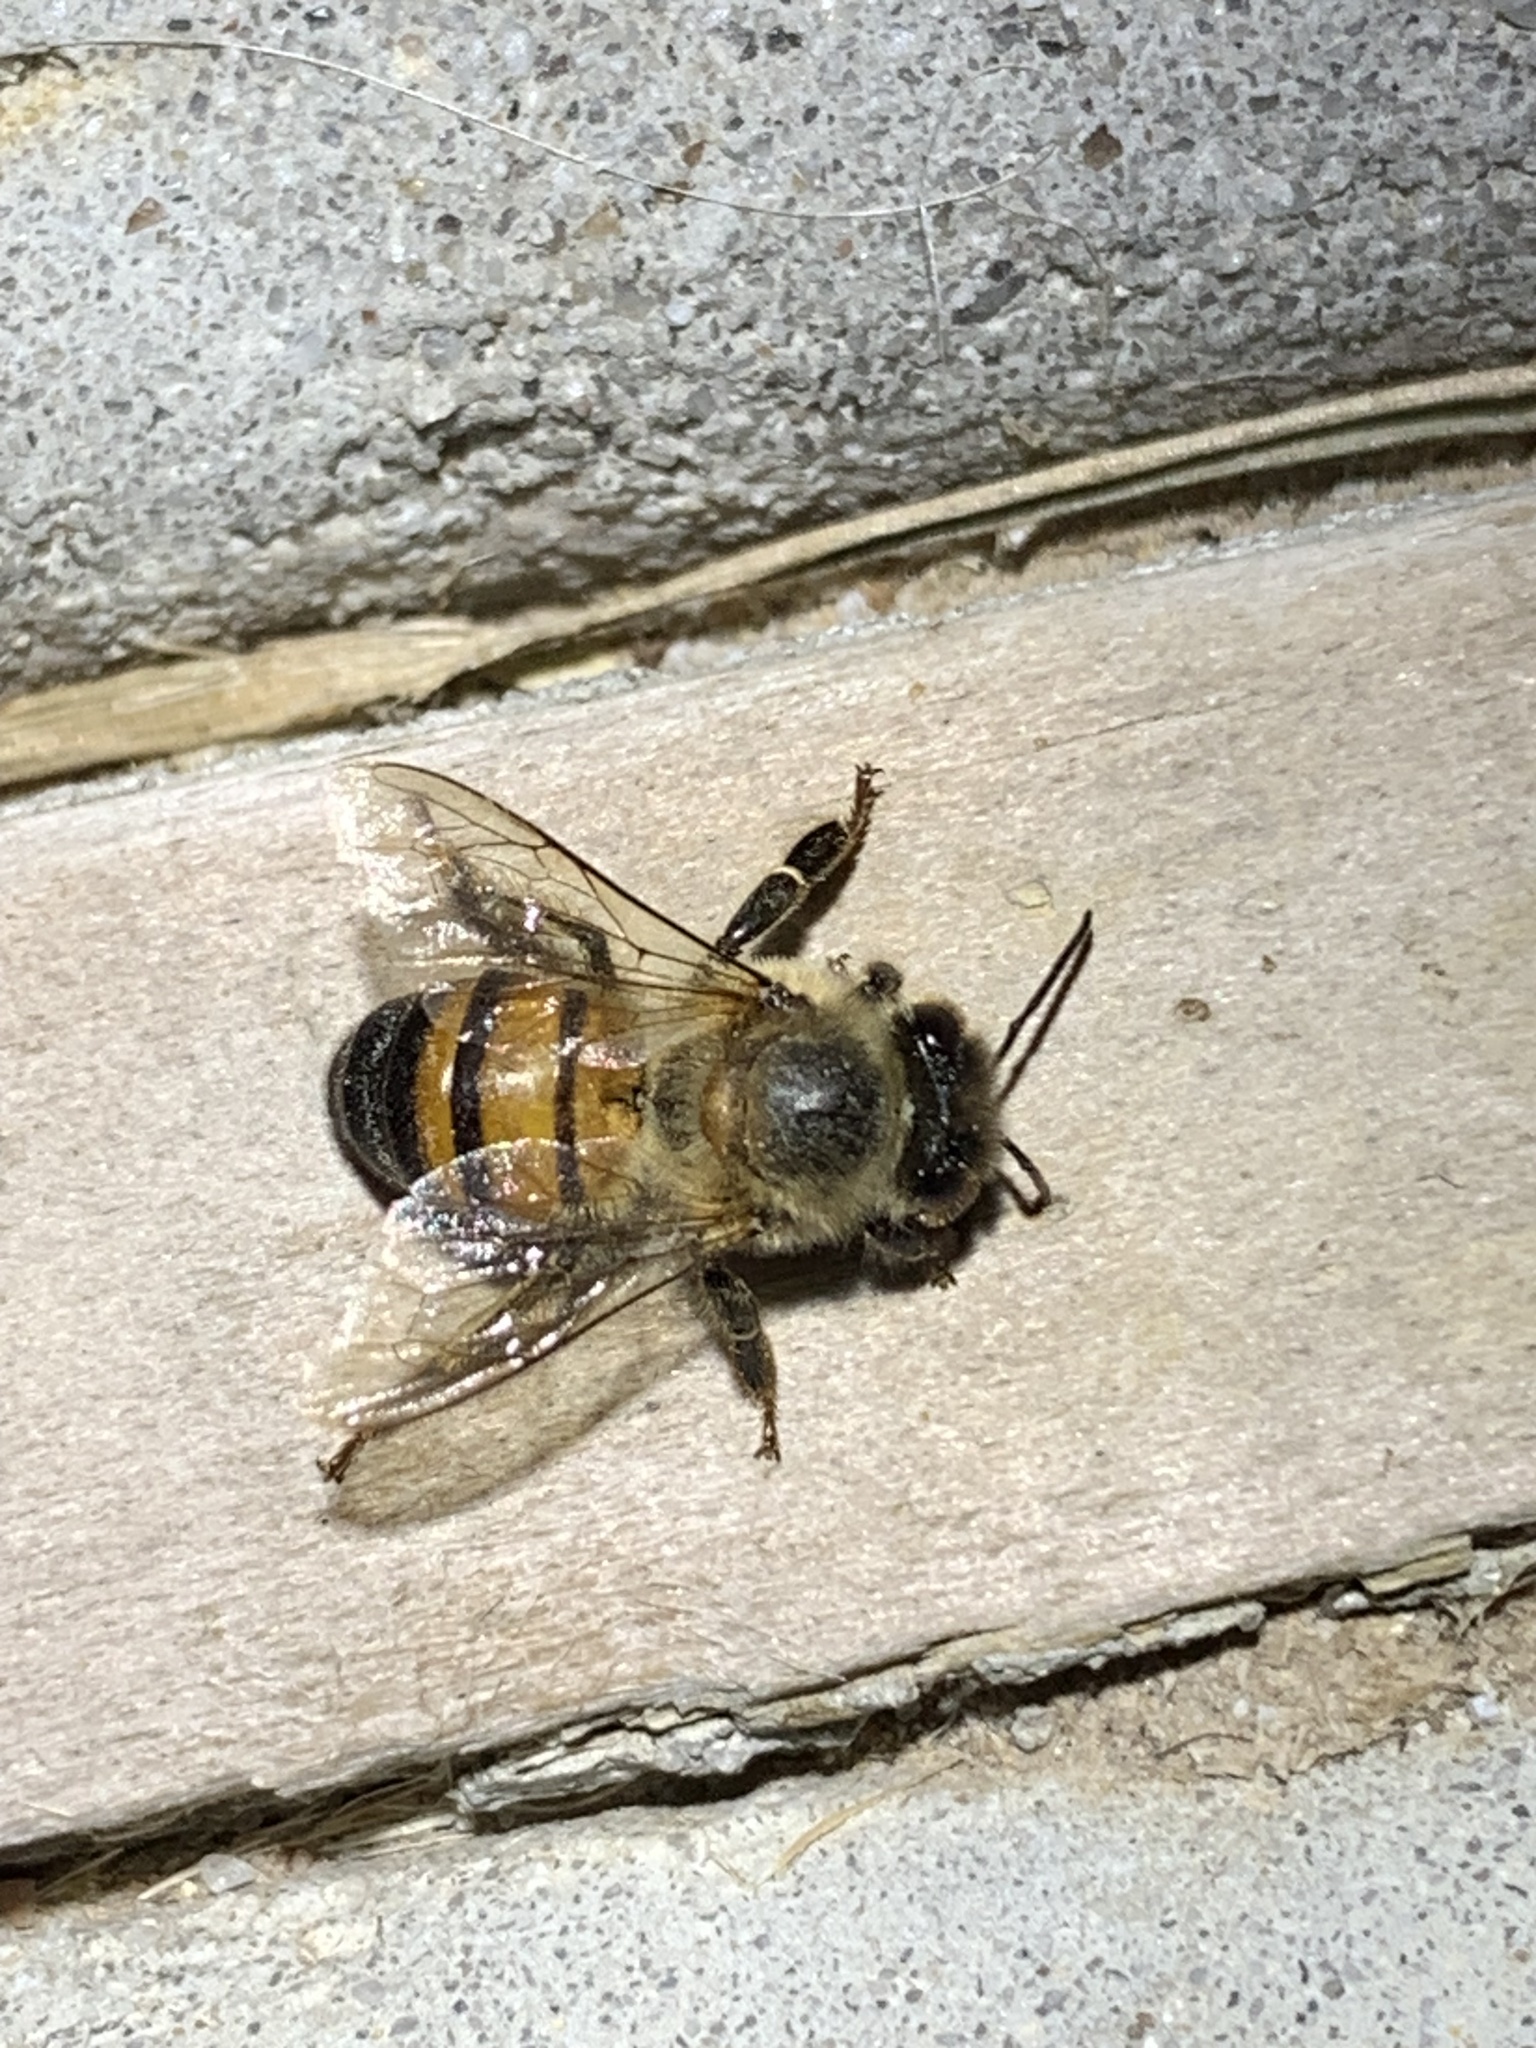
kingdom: Animalia
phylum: Arthropoda
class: Insecta
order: Hymenoptera
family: Apidae
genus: Apis
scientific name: Apis mellifera
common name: Honey bee
